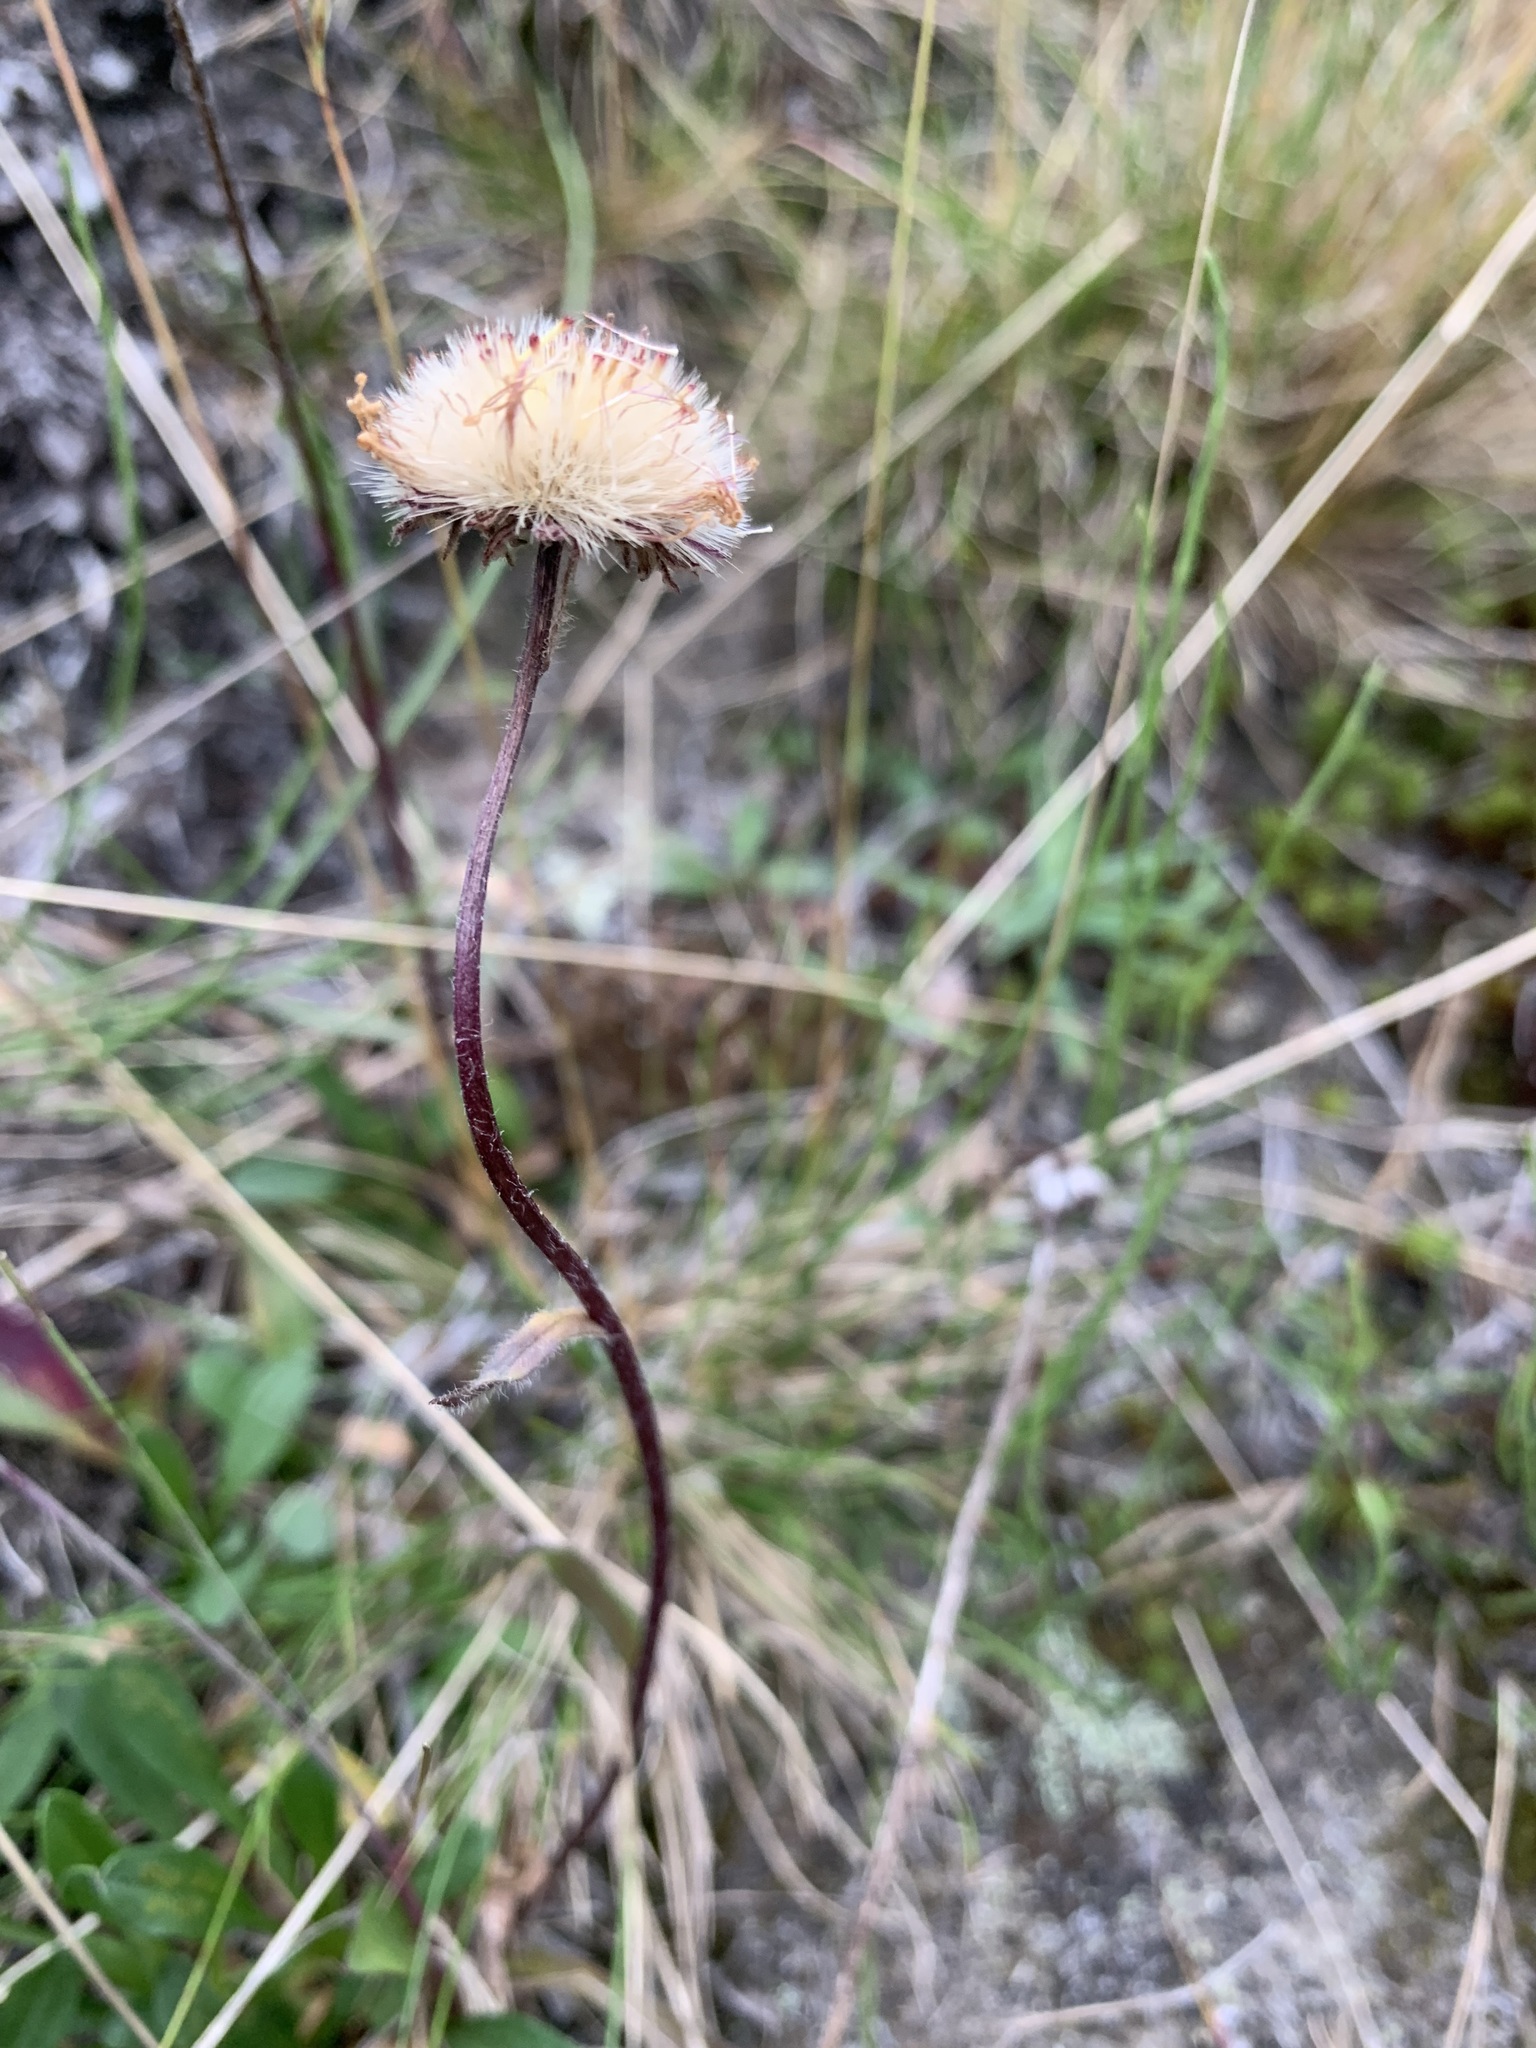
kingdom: Plantae
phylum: Tracheophyta
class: Magnoliopsida
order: Asterales
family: Asteraceae
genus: Erigeron
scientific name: Erigeron eriocephalus
